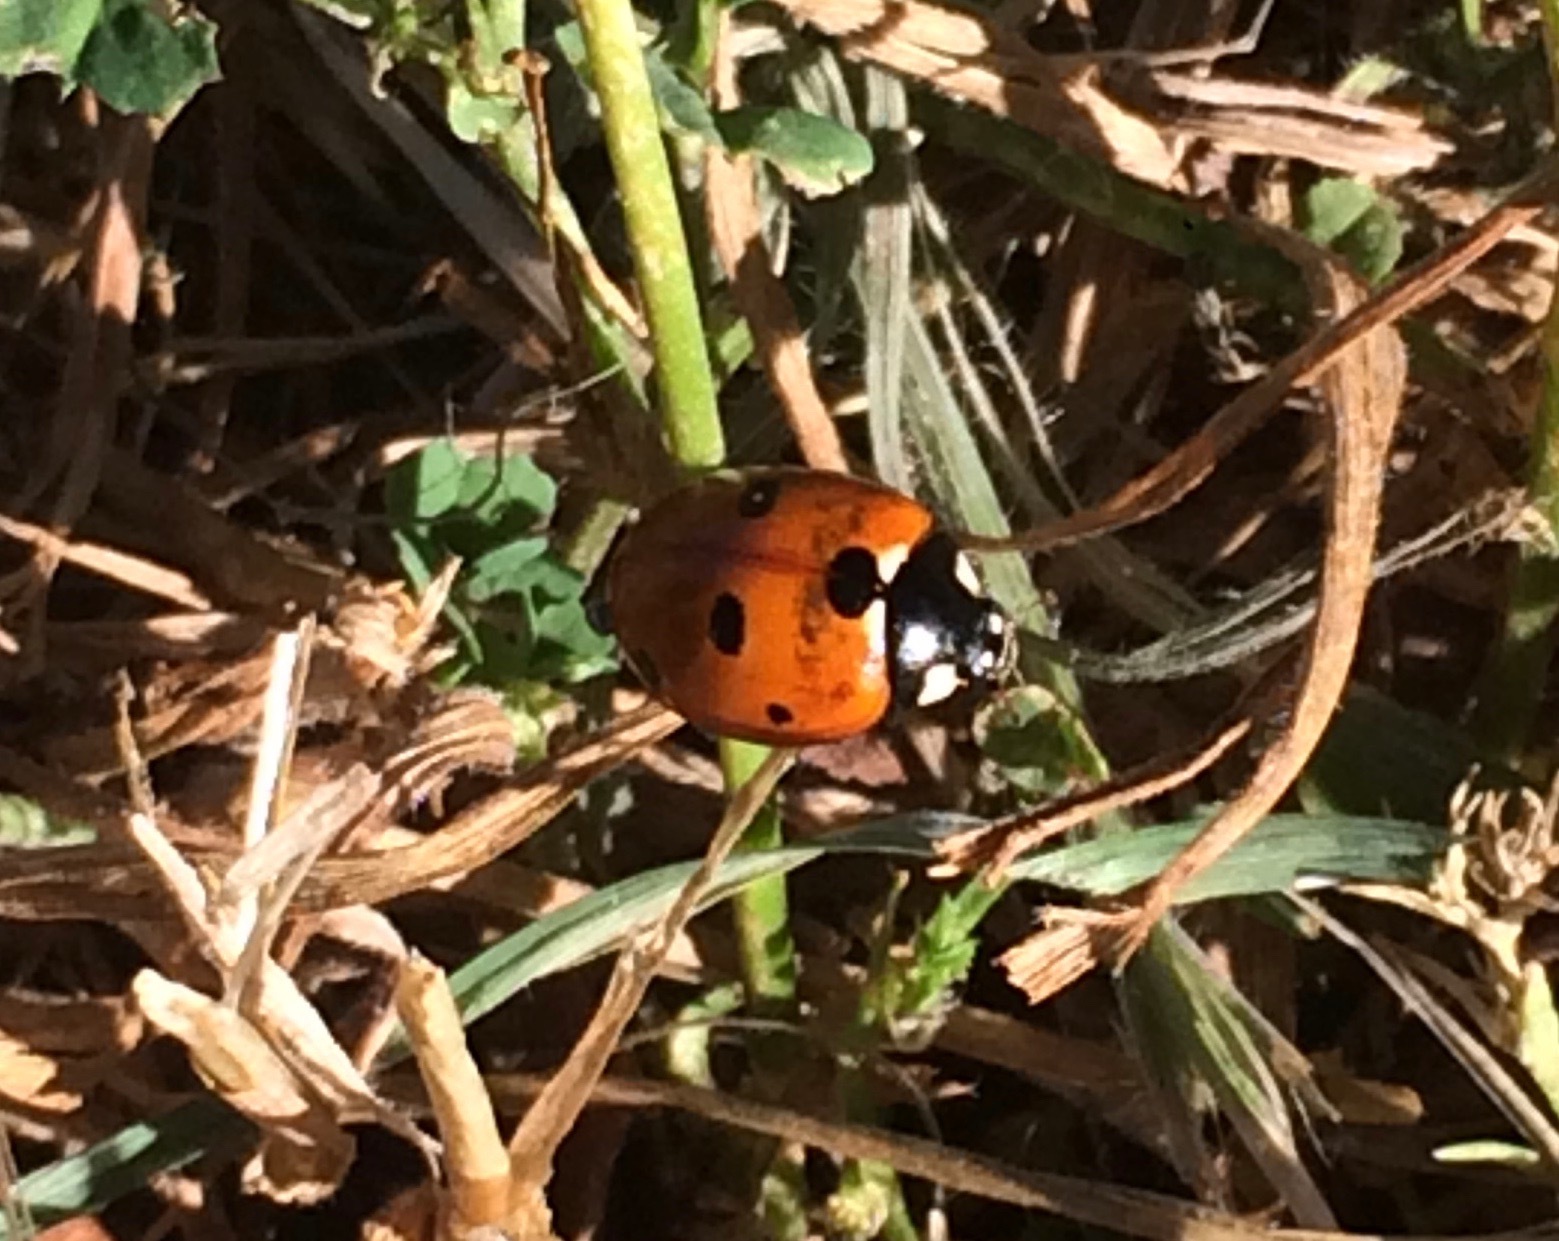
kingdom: Animalia
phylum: Arthropoda
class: Insecta
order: Coleoptera
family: Coccinellidae
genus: Coccinella
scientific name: Coccinella septempunctata
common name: Sevenspotted lady beetle
